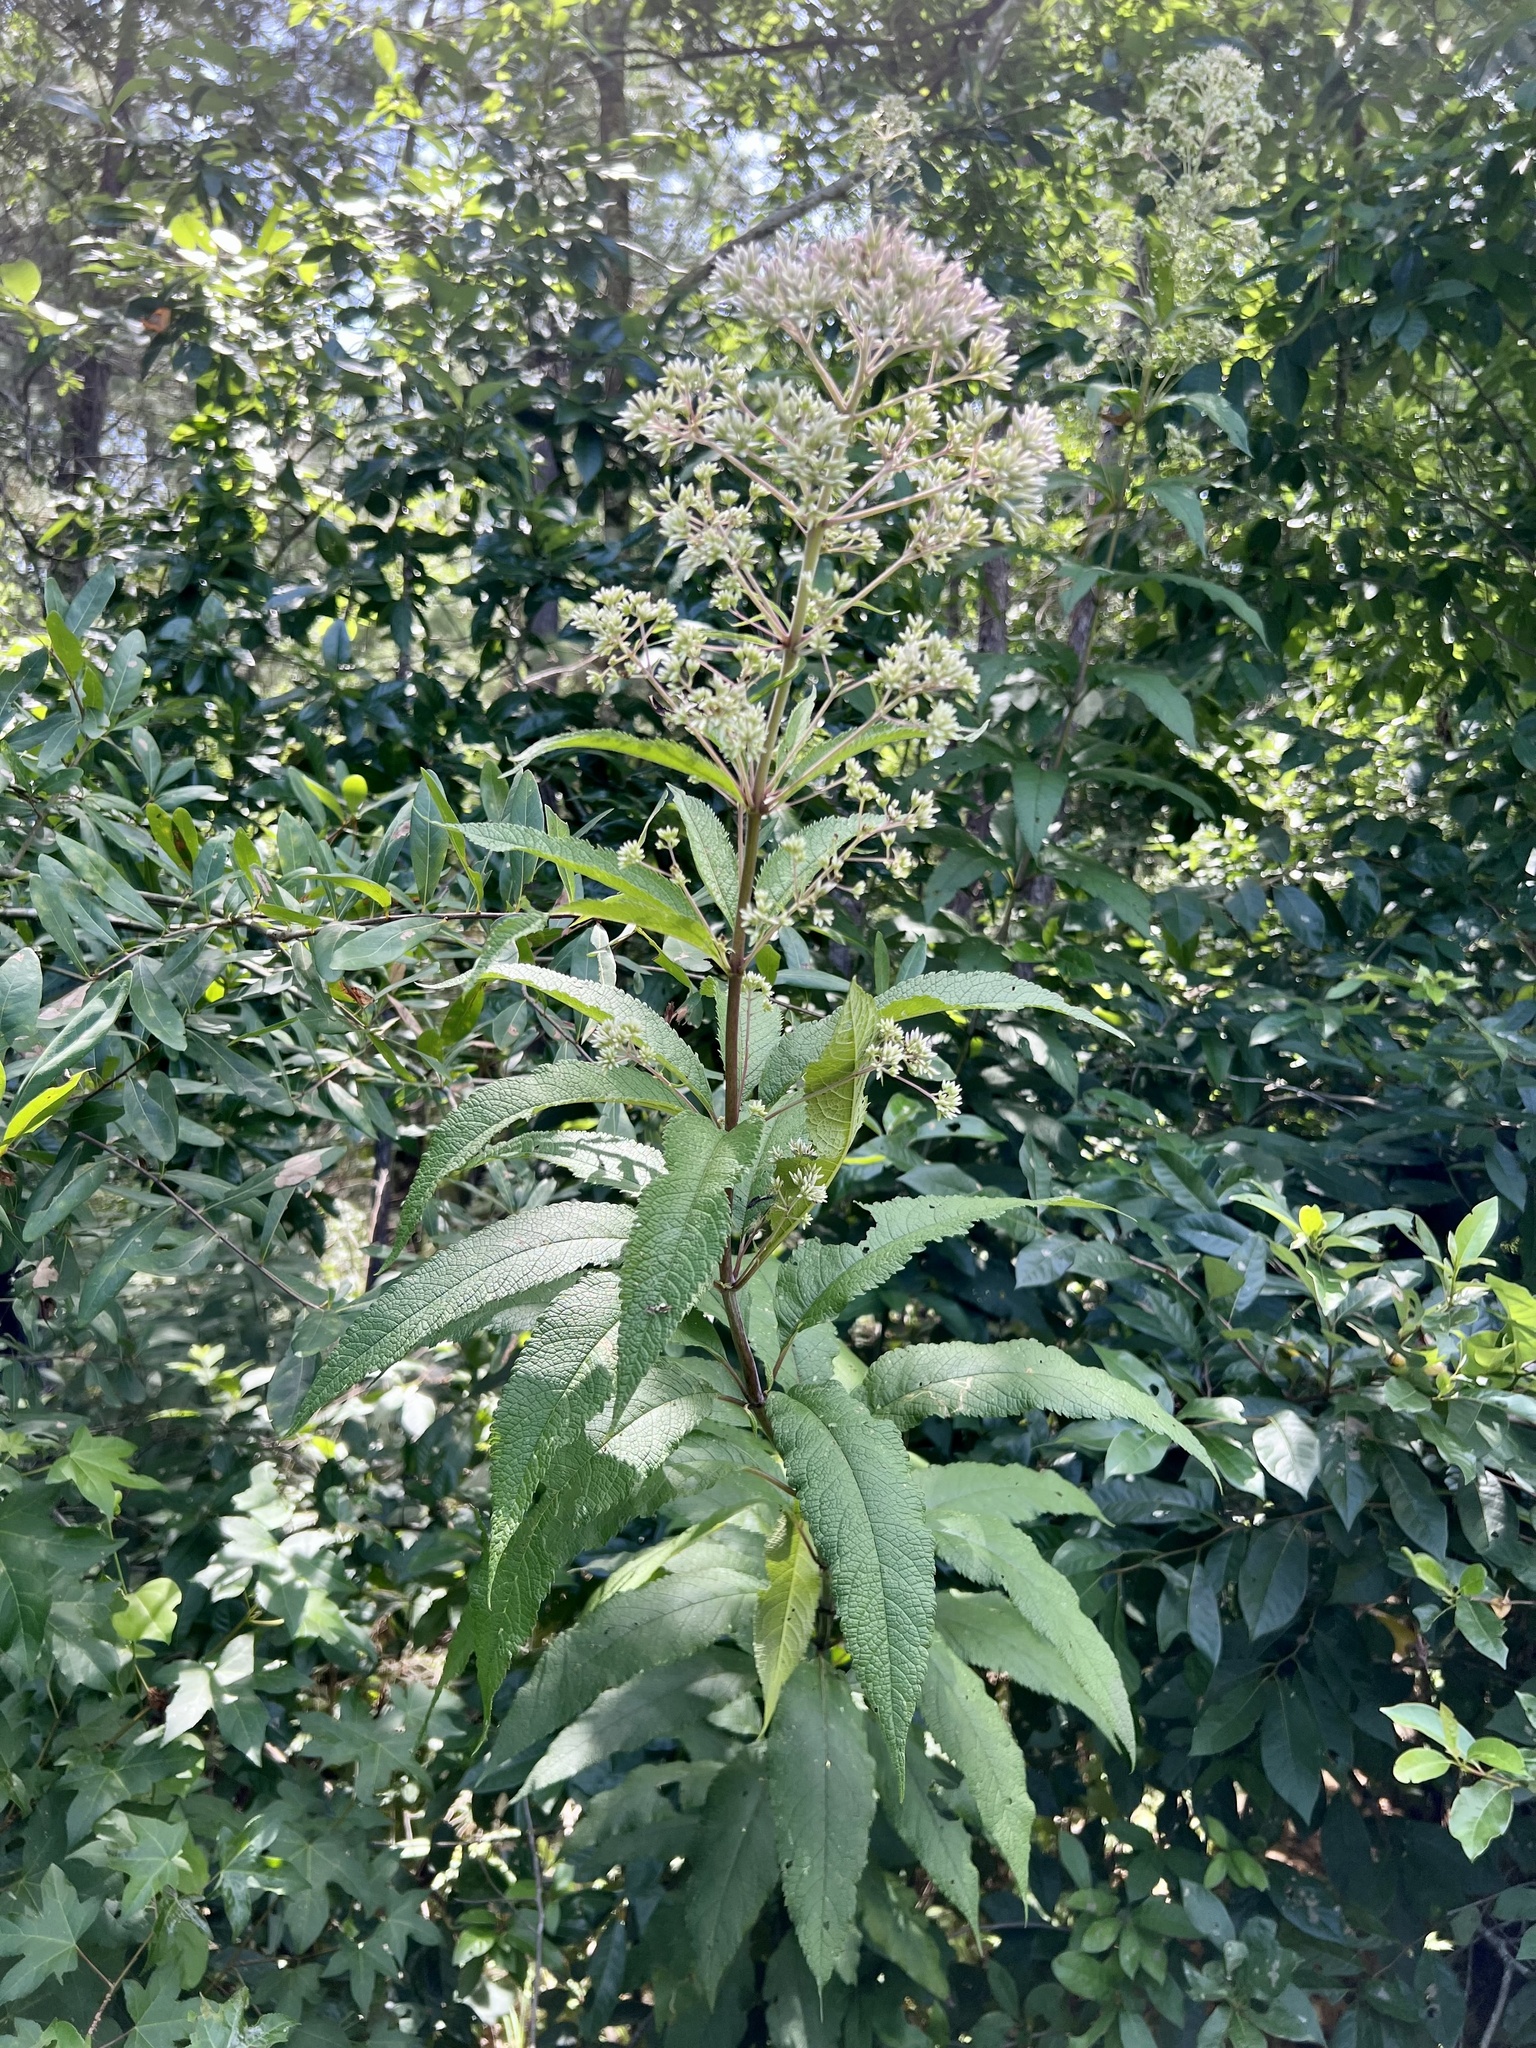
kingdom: Plantae
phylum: Tracheophyta
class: Magnoliopsida
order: Asterales
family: Asteraceae
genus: Eutrochium
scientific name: Eutrochium fistulosum
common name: Trumpetweed
